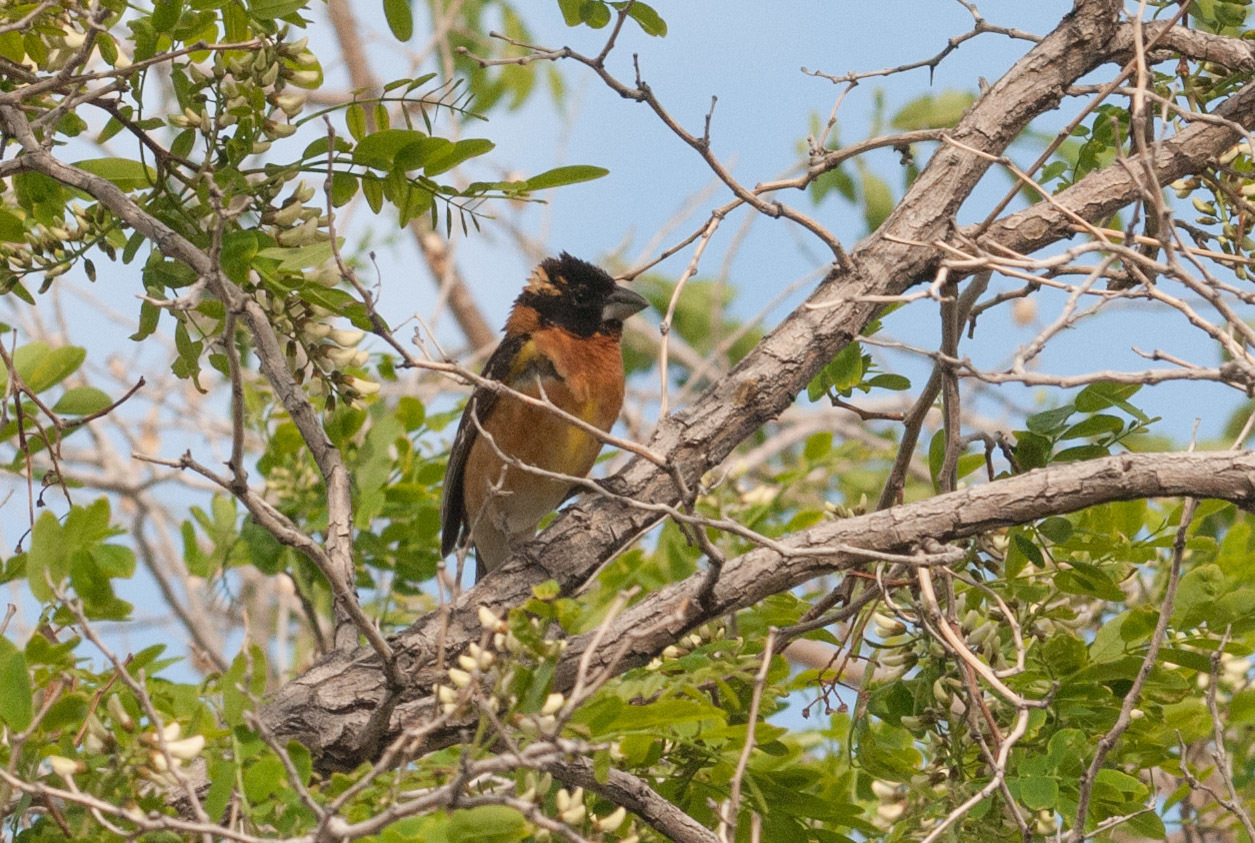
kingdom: Animalia
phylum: Chordata
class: Aves
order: Passeriformes
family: Cardinalidae
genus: Pheucticus
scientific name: Pheucticus melanocephalus
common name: Black-headed grosbeak
